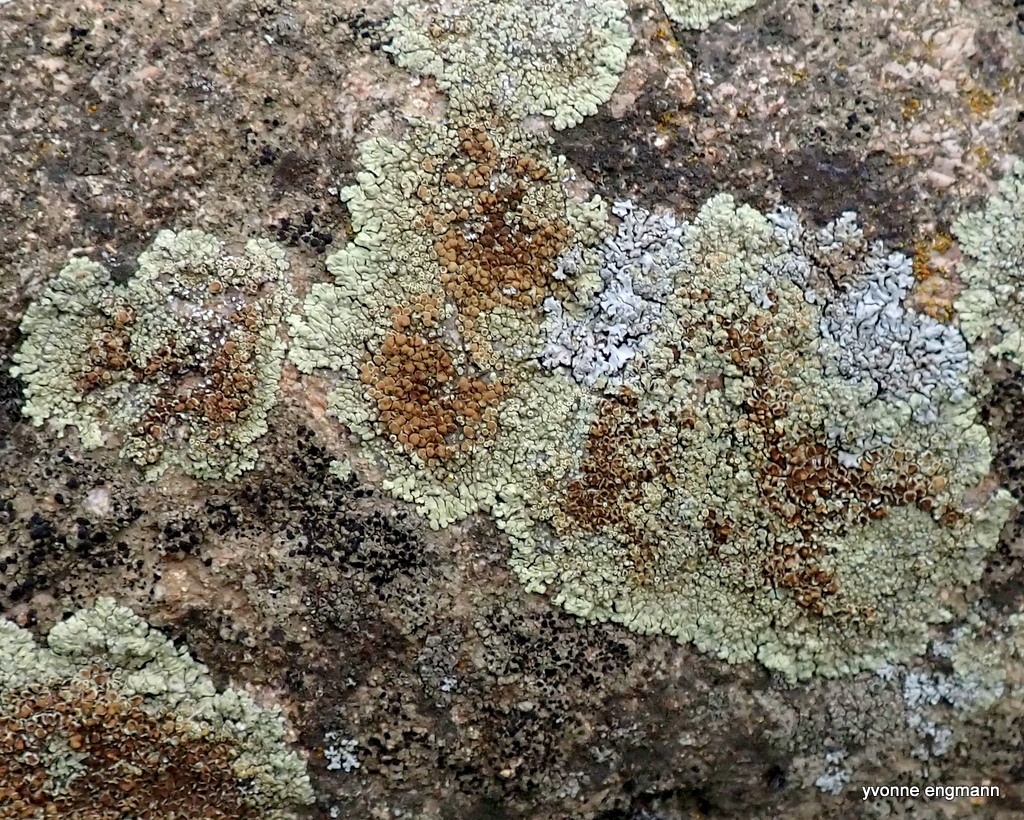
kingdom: Fungi
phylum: Ascomycota
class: Lecanoromycetes
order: Lecanorales
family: Lecanoraceae
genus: Protoparmeliopsis
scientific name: Protoparmeliopsis muralis
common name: Stonewall rim lichen
